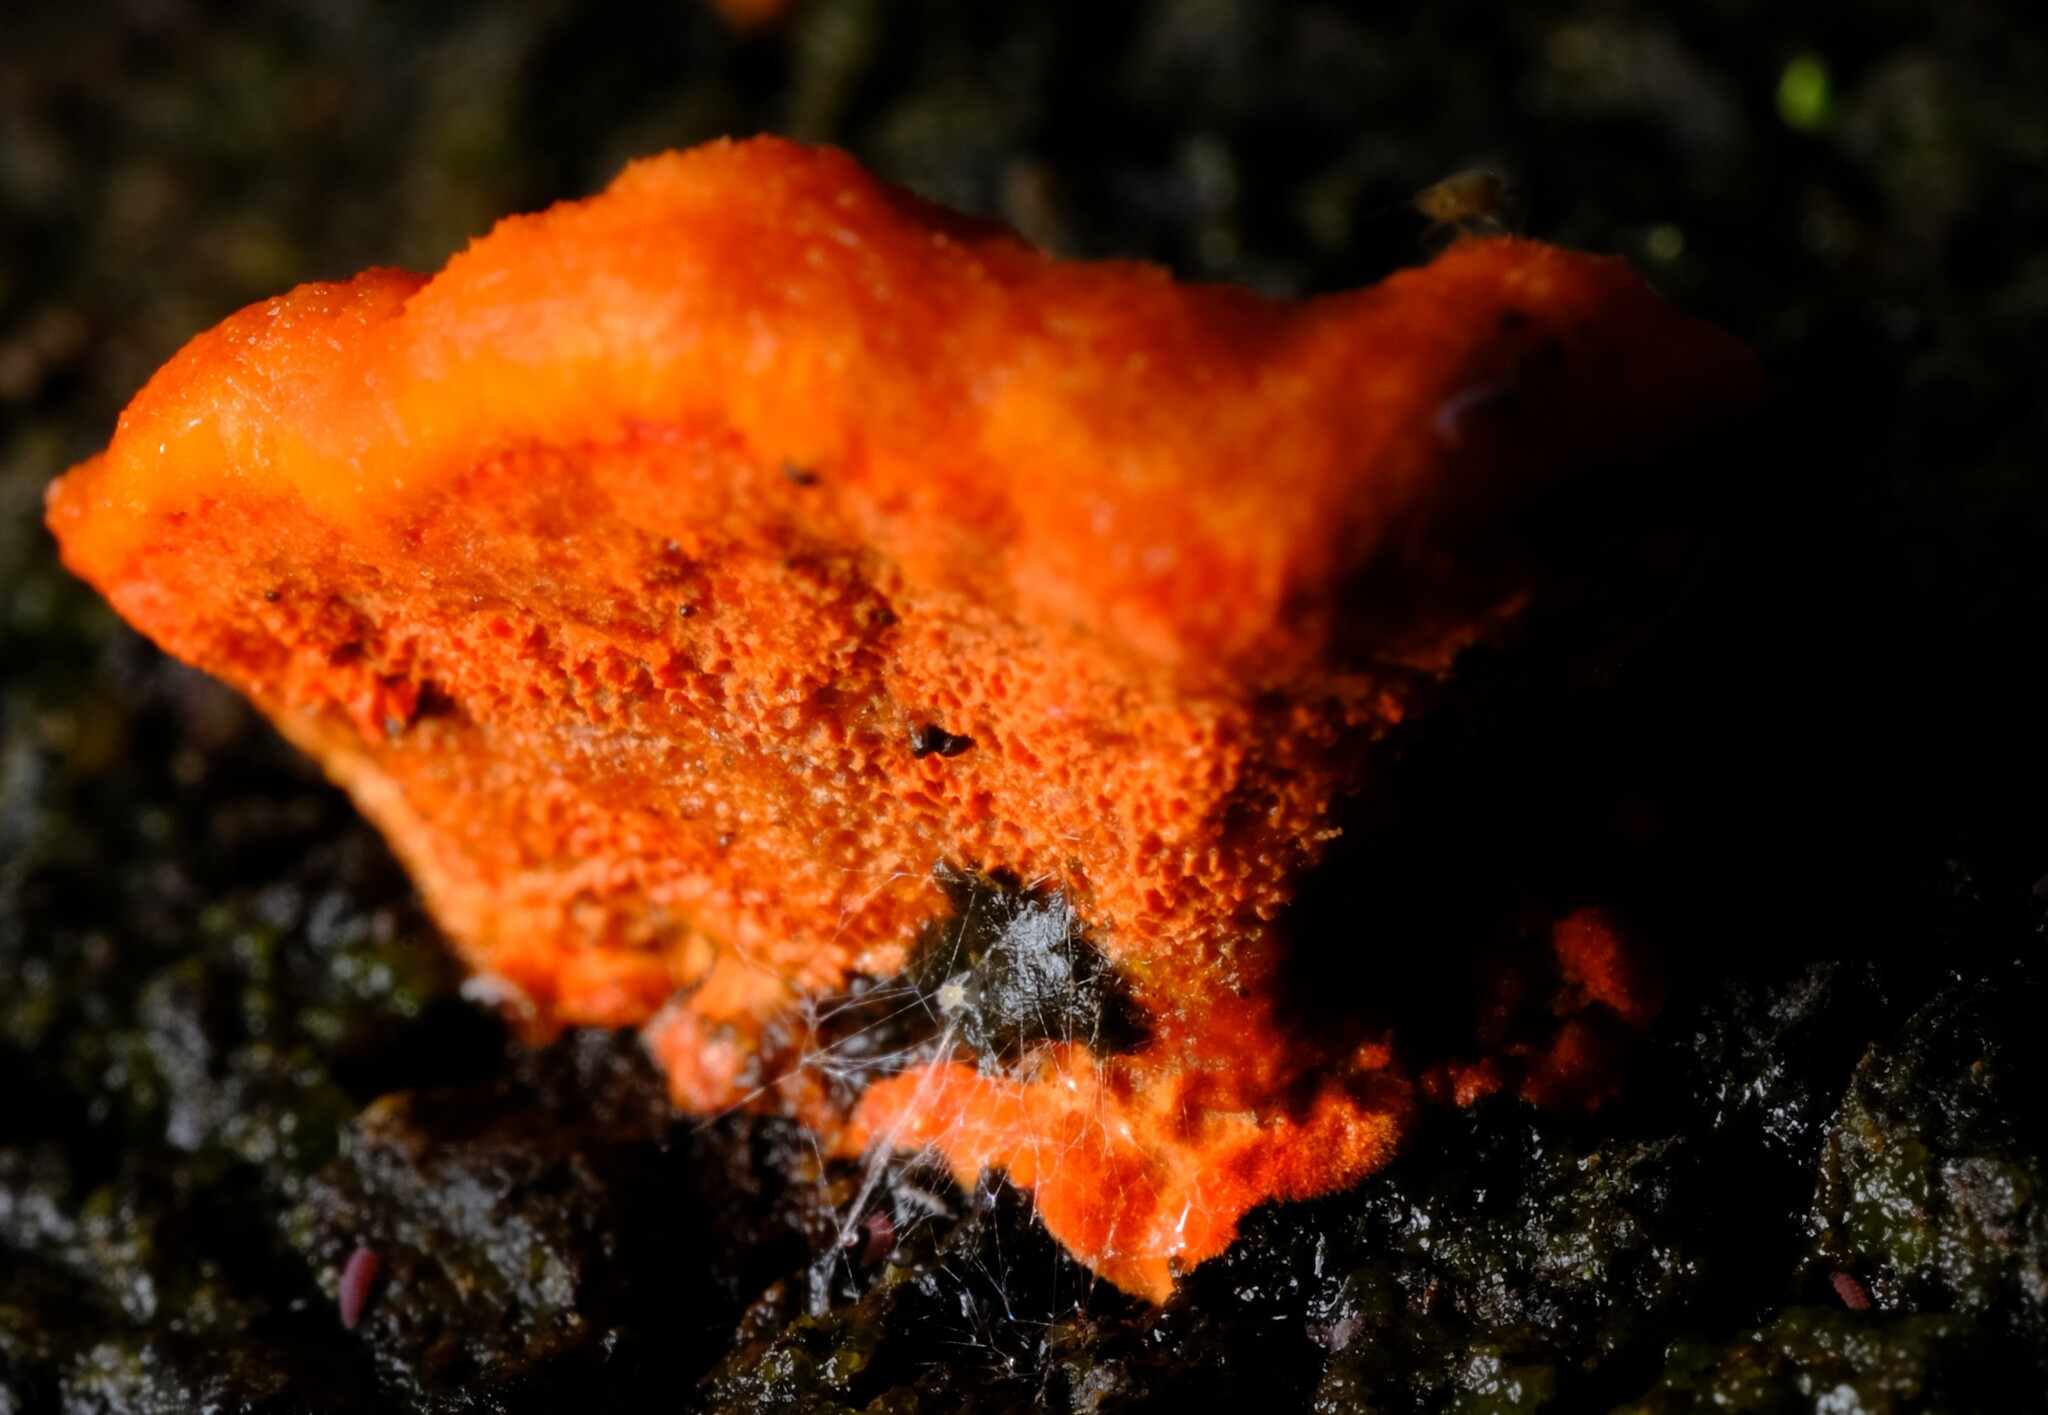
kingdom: Fungi
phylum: Basidiomycota
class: Agaricomycetes
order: Polyporales
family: Polyporaceae
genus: Trametes
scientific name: Trametes coccinea
